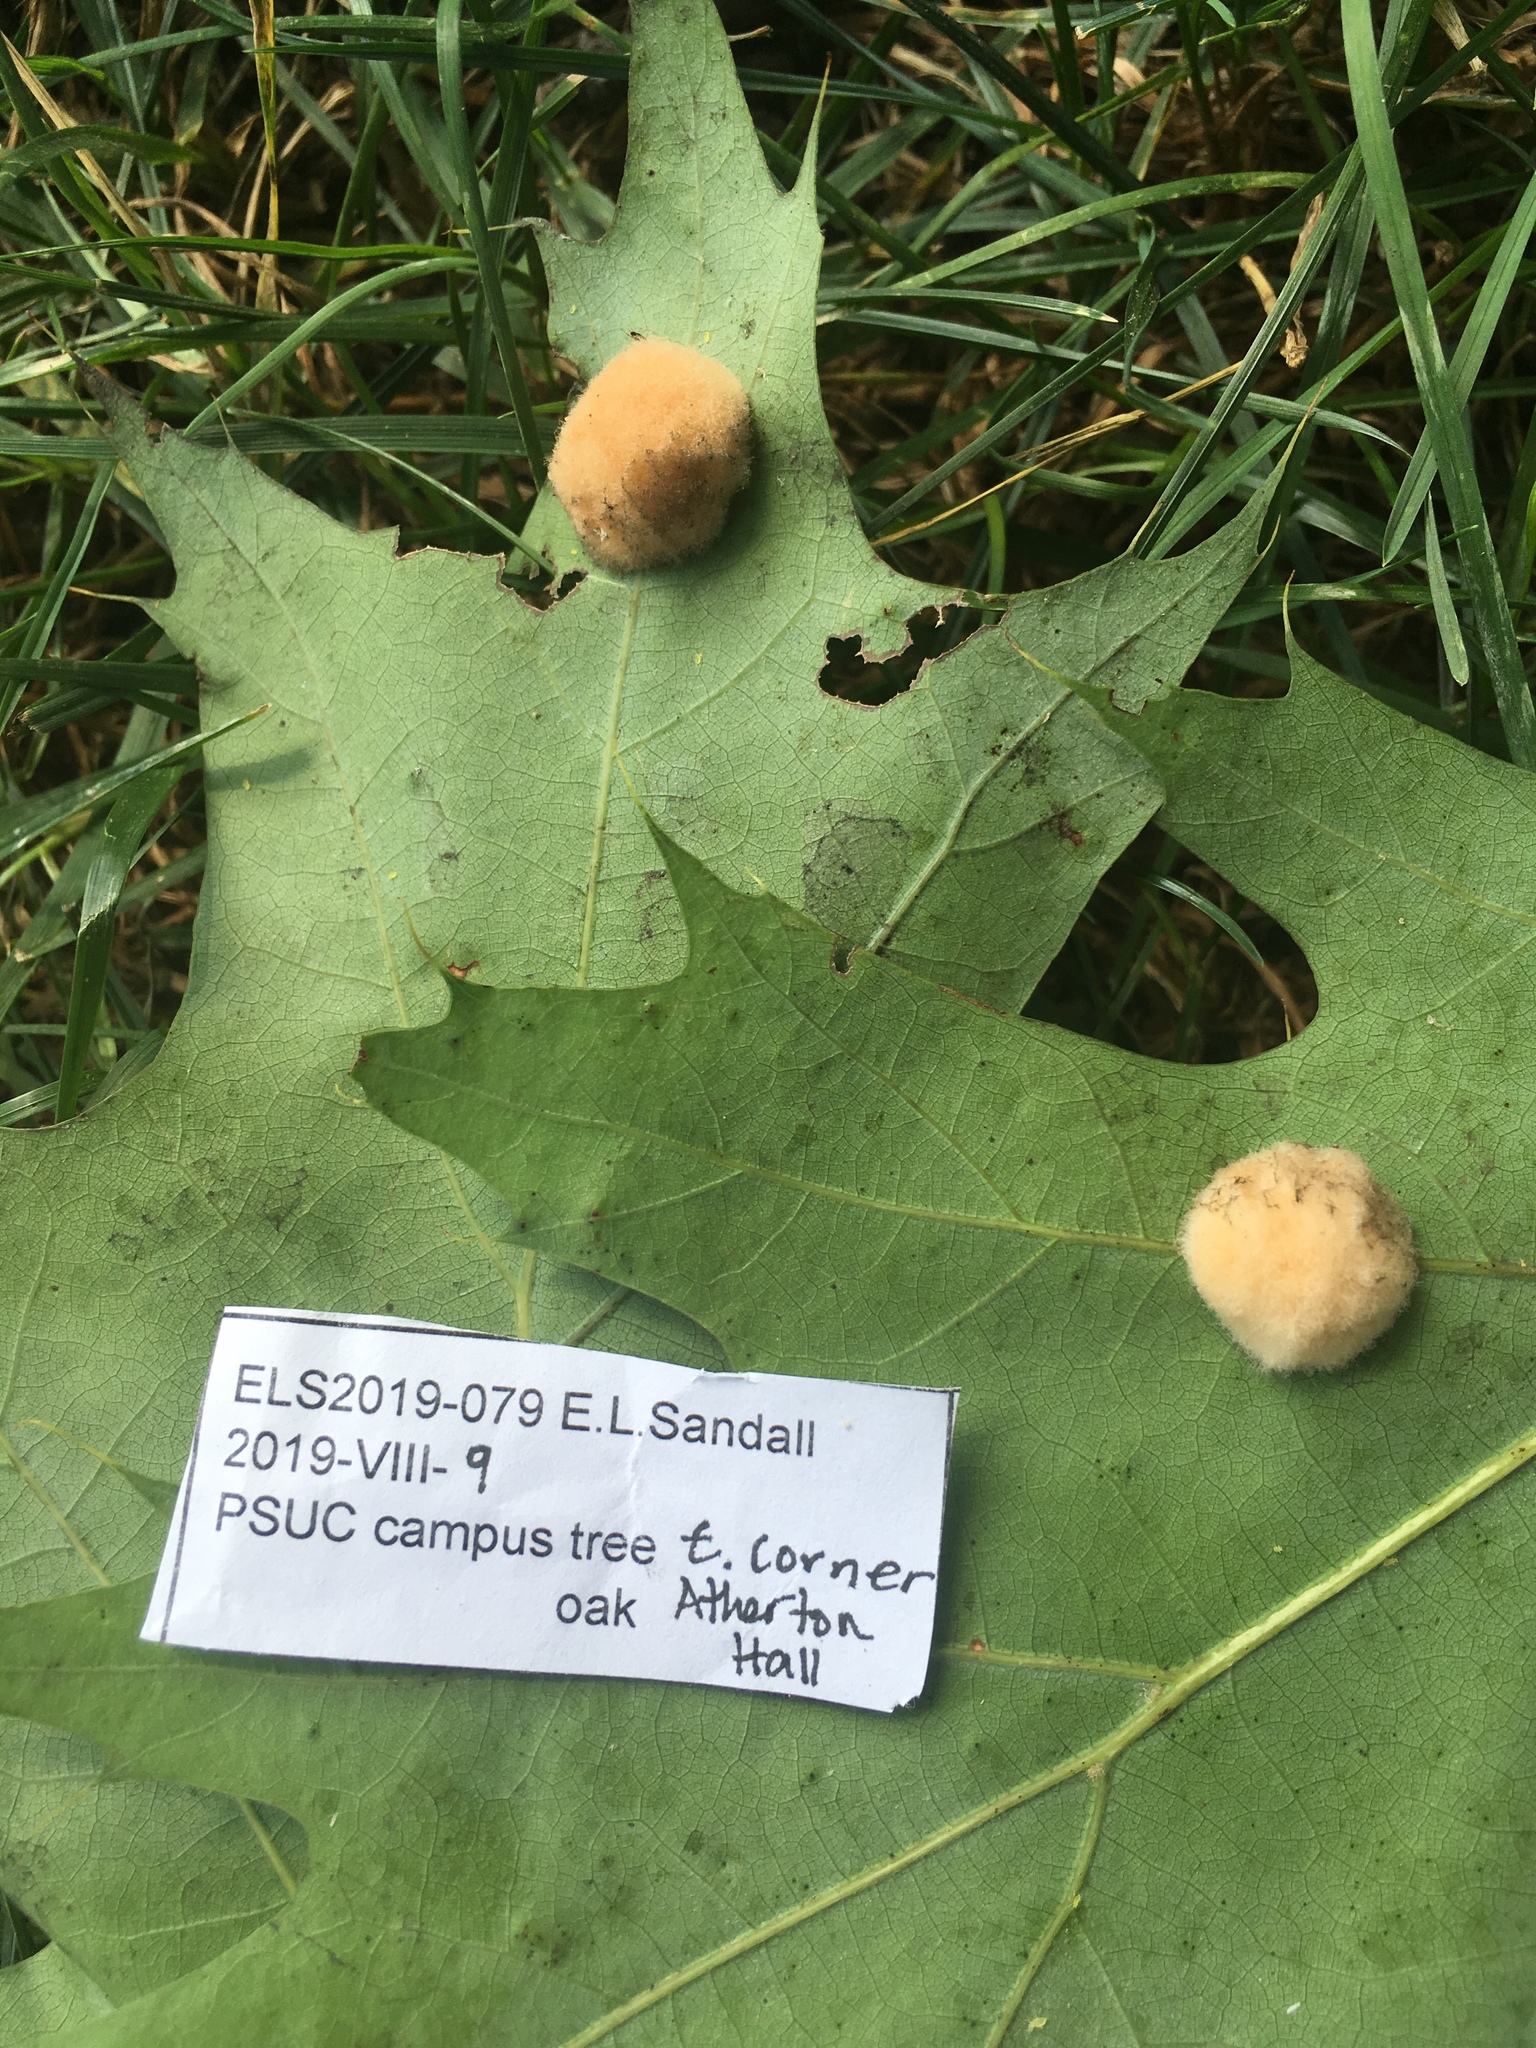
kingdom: Animalia
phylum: Arthropoda
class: Insecta
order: Hymenoptera
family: Cynipidae
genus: Callirhytis
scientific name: Callirhytis
